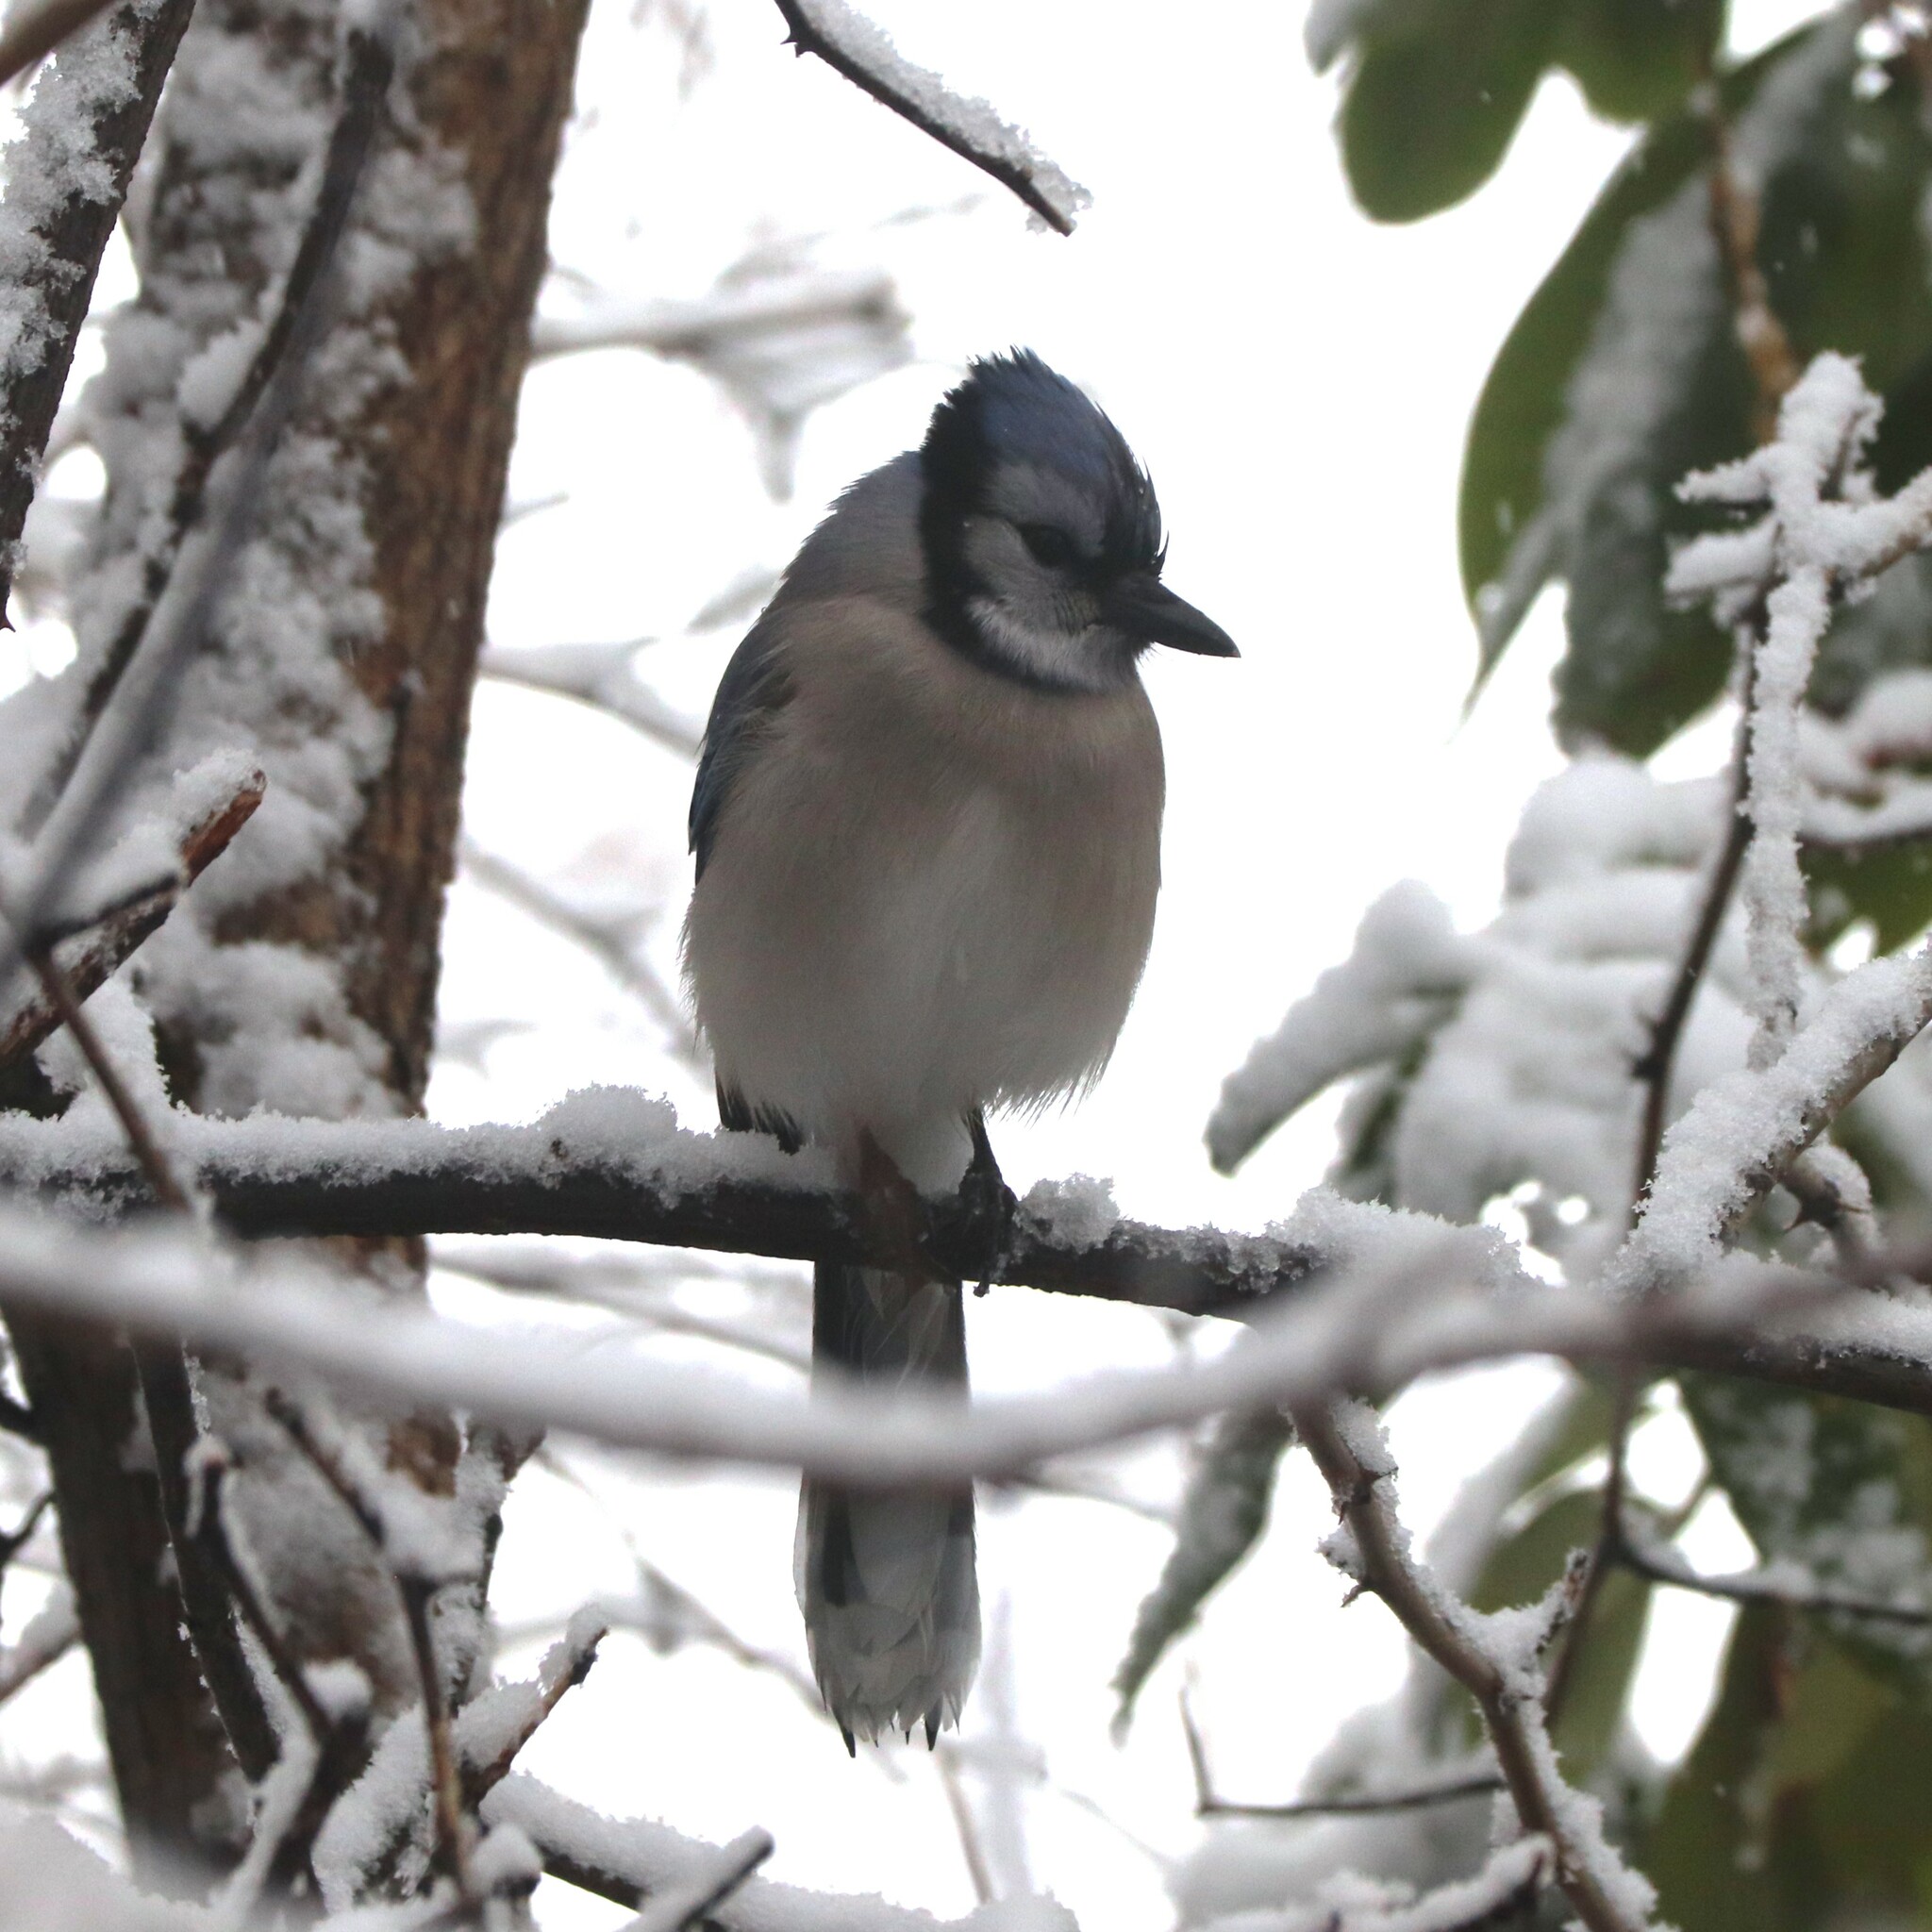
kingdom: Animalia
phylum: Chordata
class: Aves
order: Passeriformes
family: Corvidae
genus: Cyanocitta
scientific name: Cyanocitta cristata
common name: Blue jay
